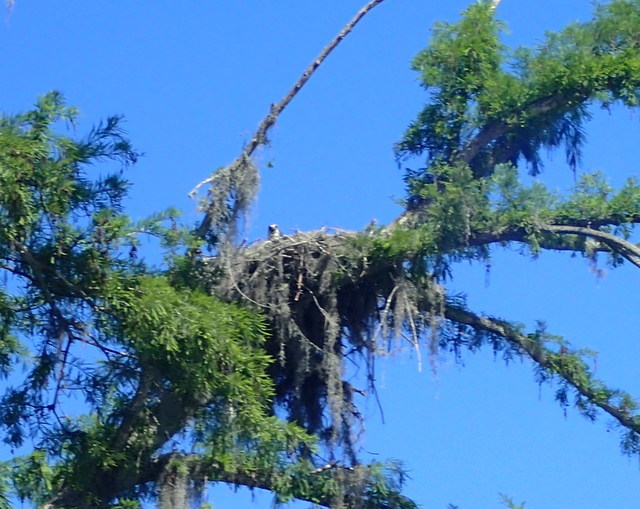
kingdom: Animalia
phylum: Chordata
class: Aves
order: Accipitriformes
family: Pandionidae
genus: Pandion
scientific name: Pandion haliaetus
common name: Osprey
